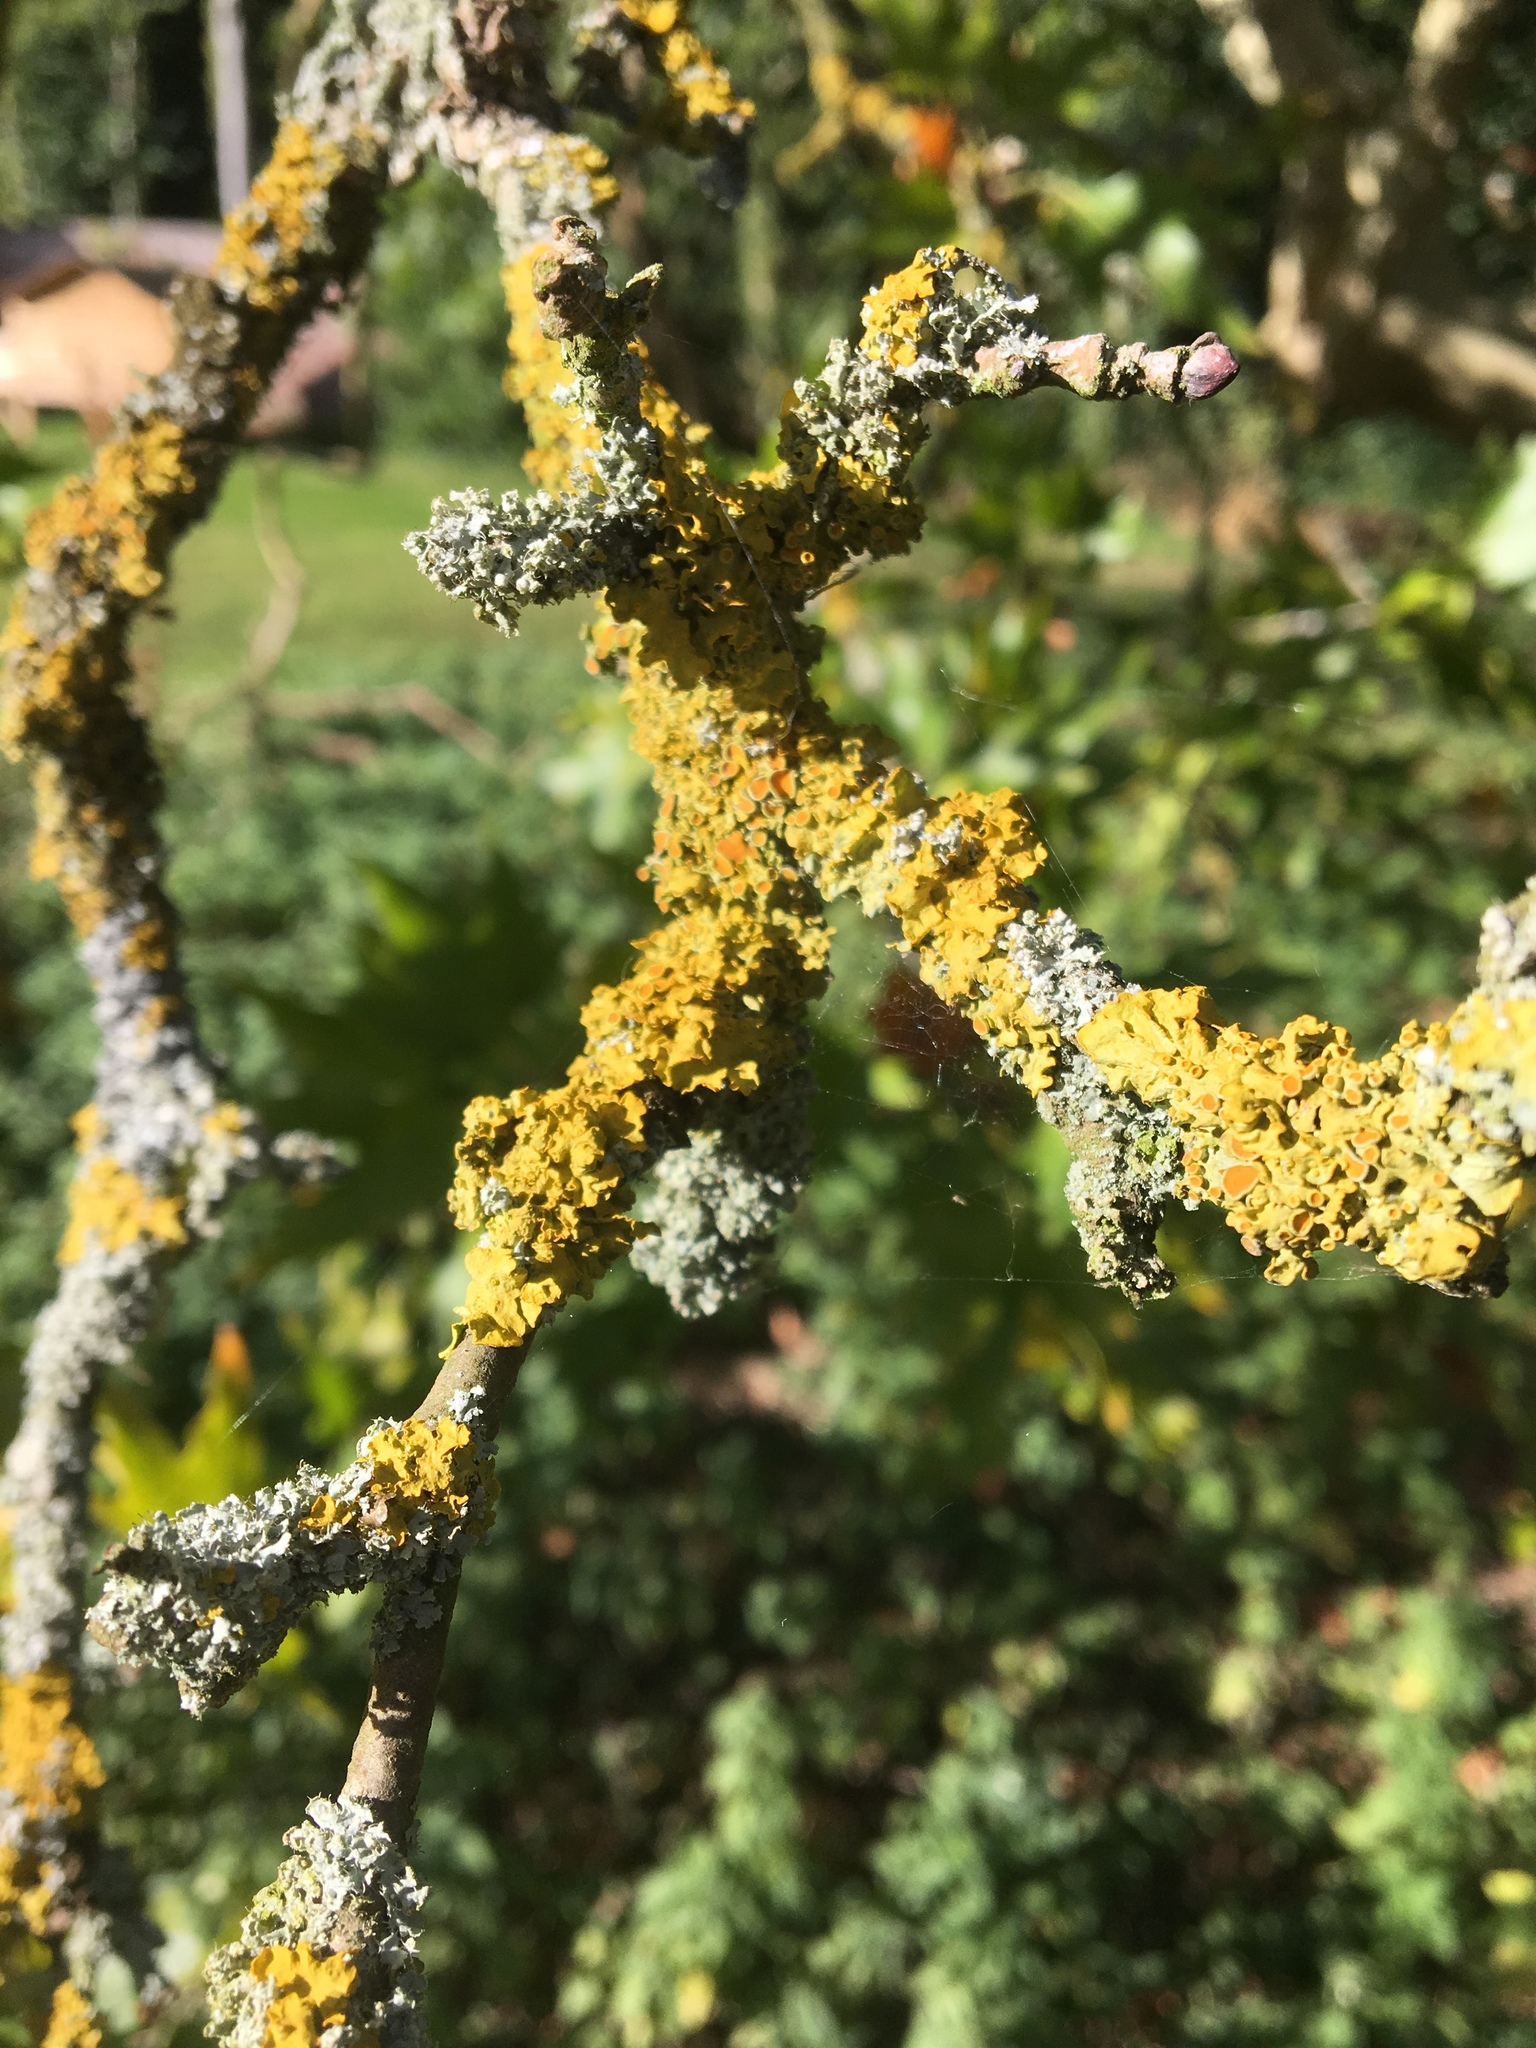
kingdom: Fungi
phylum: Ascomycota
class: Lecanoromycetes
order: Teloschistales
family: Teloschistaceae
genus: Xanthoria
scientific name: Xanthoria parietina
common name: Common orange lichen
